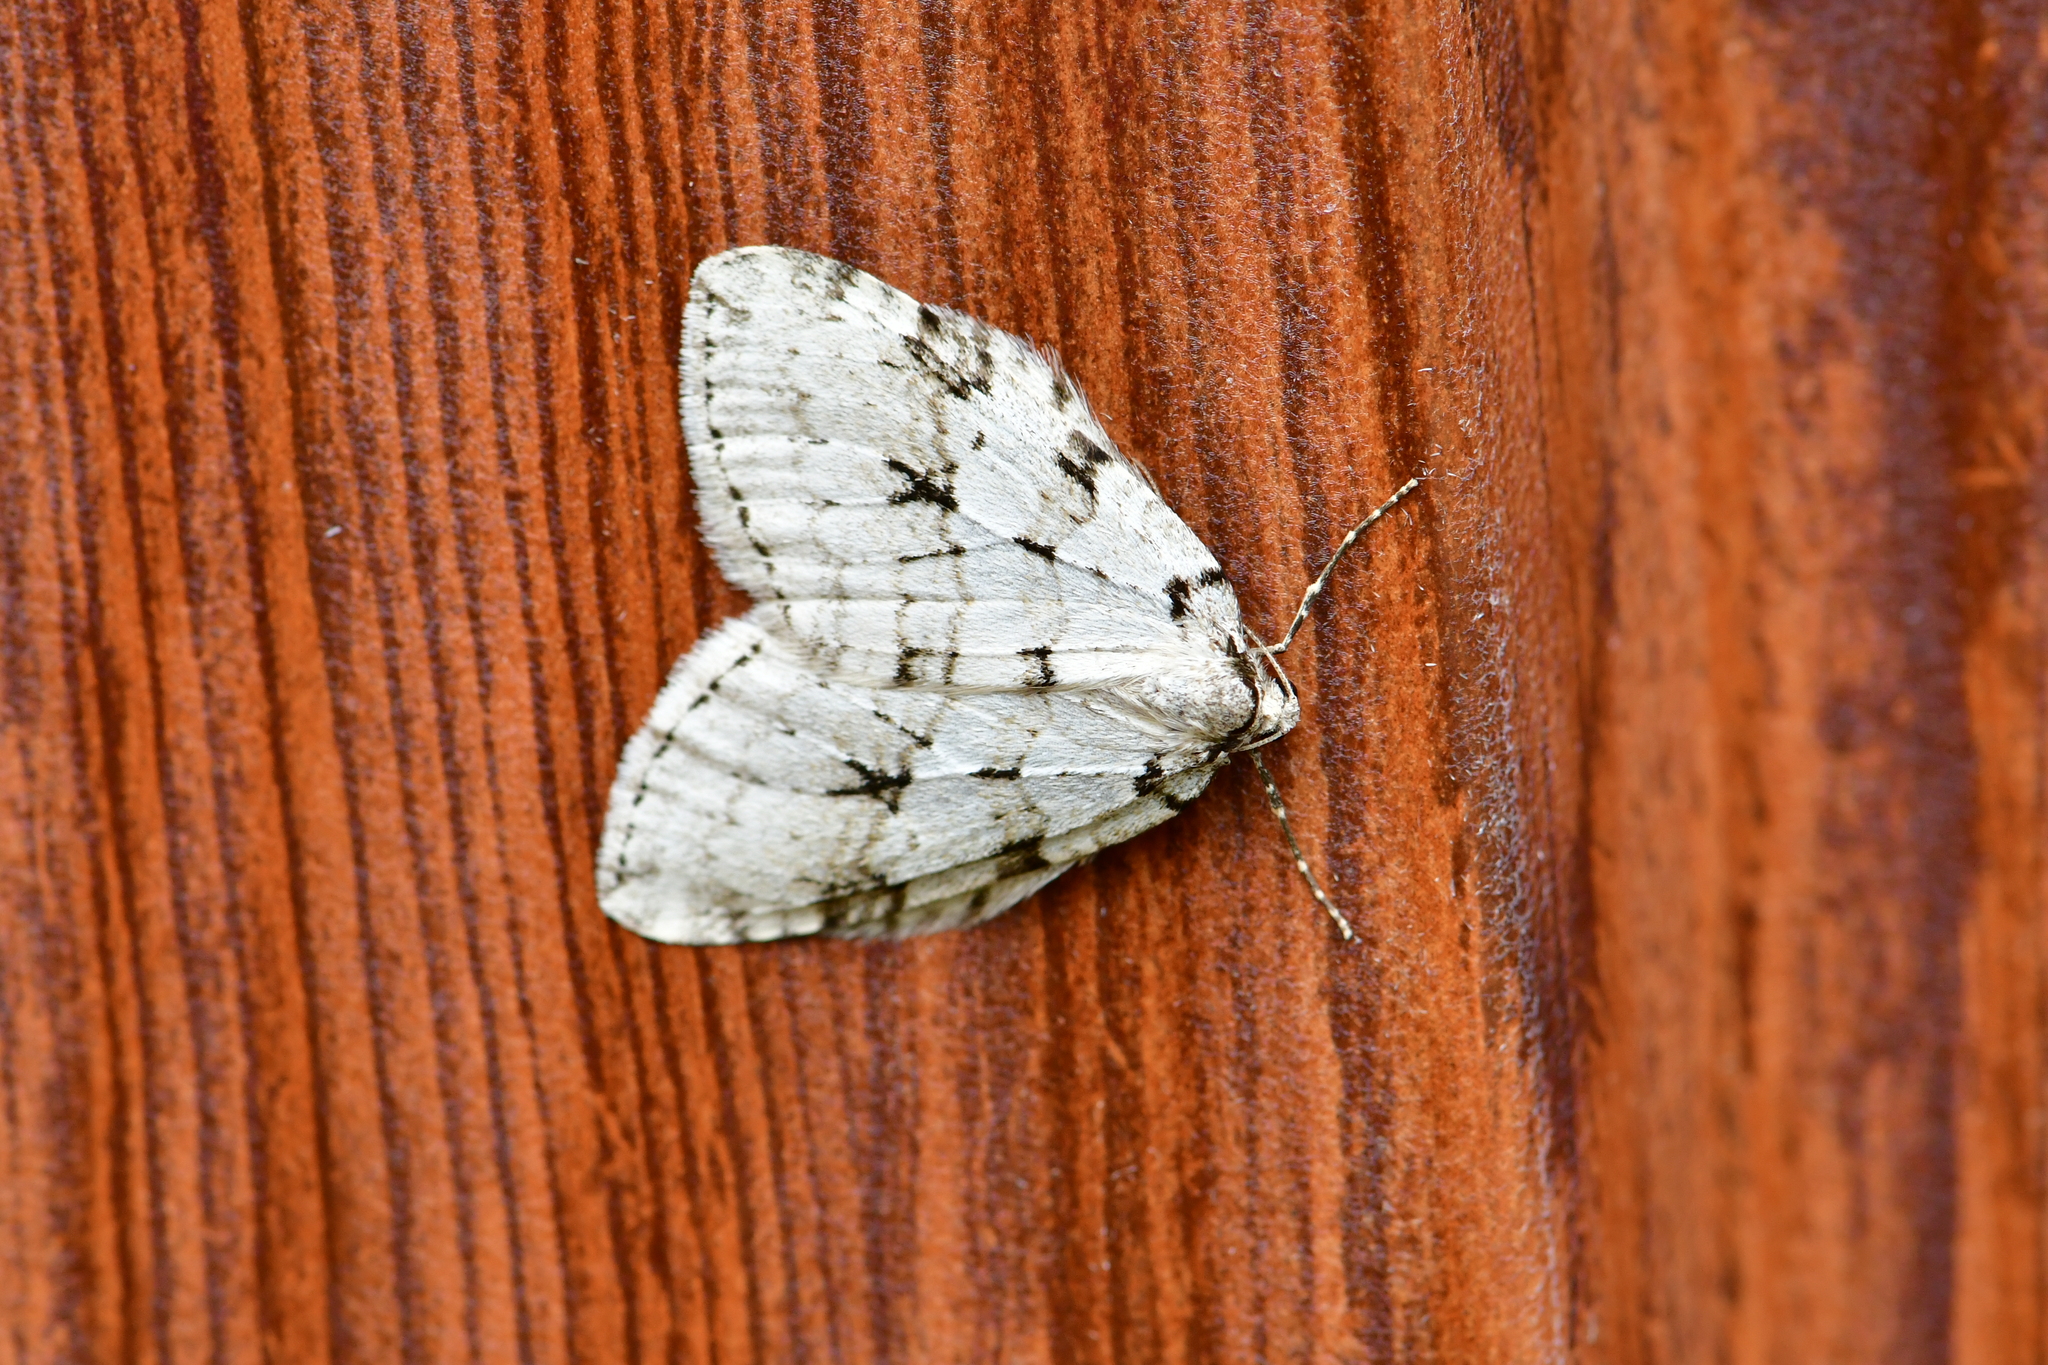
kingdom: Animalia
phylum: Arthropoda
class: Insecta
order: Lepidoptera
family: Geometridae
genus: Epirrita
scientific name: Epirrita autumnata
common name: Autumnal moth
